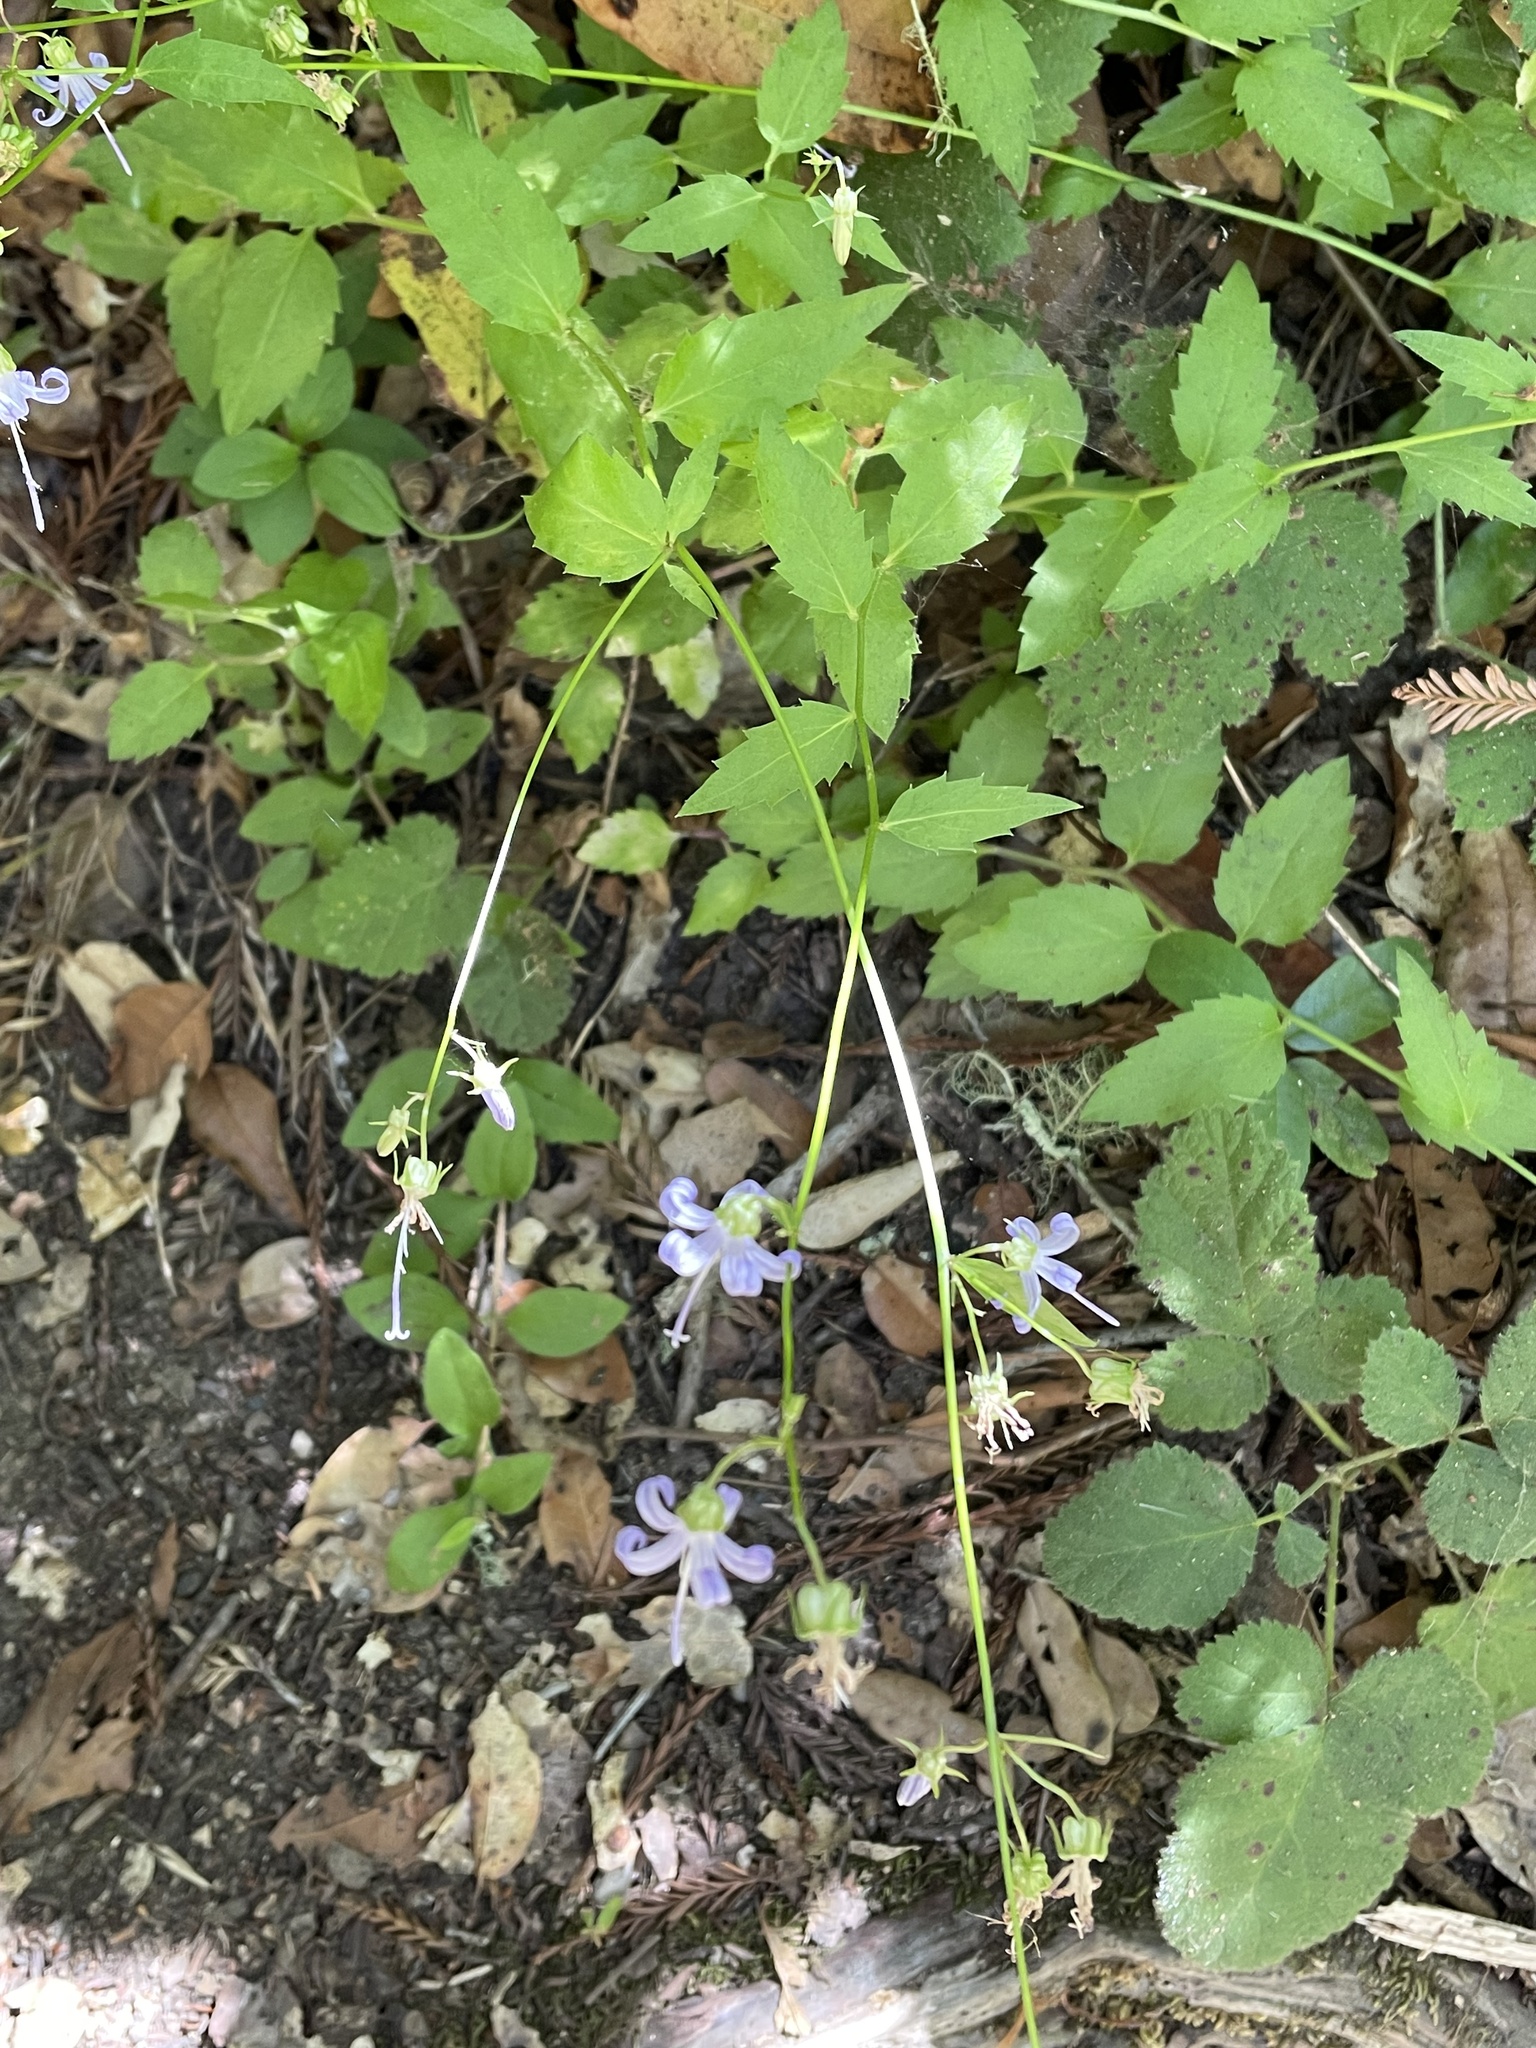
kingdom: Plantae
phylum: Tracheophyta
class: Magnoliopsida
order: Asterales
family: Campanulaceae
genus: Smithiastrum
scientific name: Smithiastrum prenanthoides
